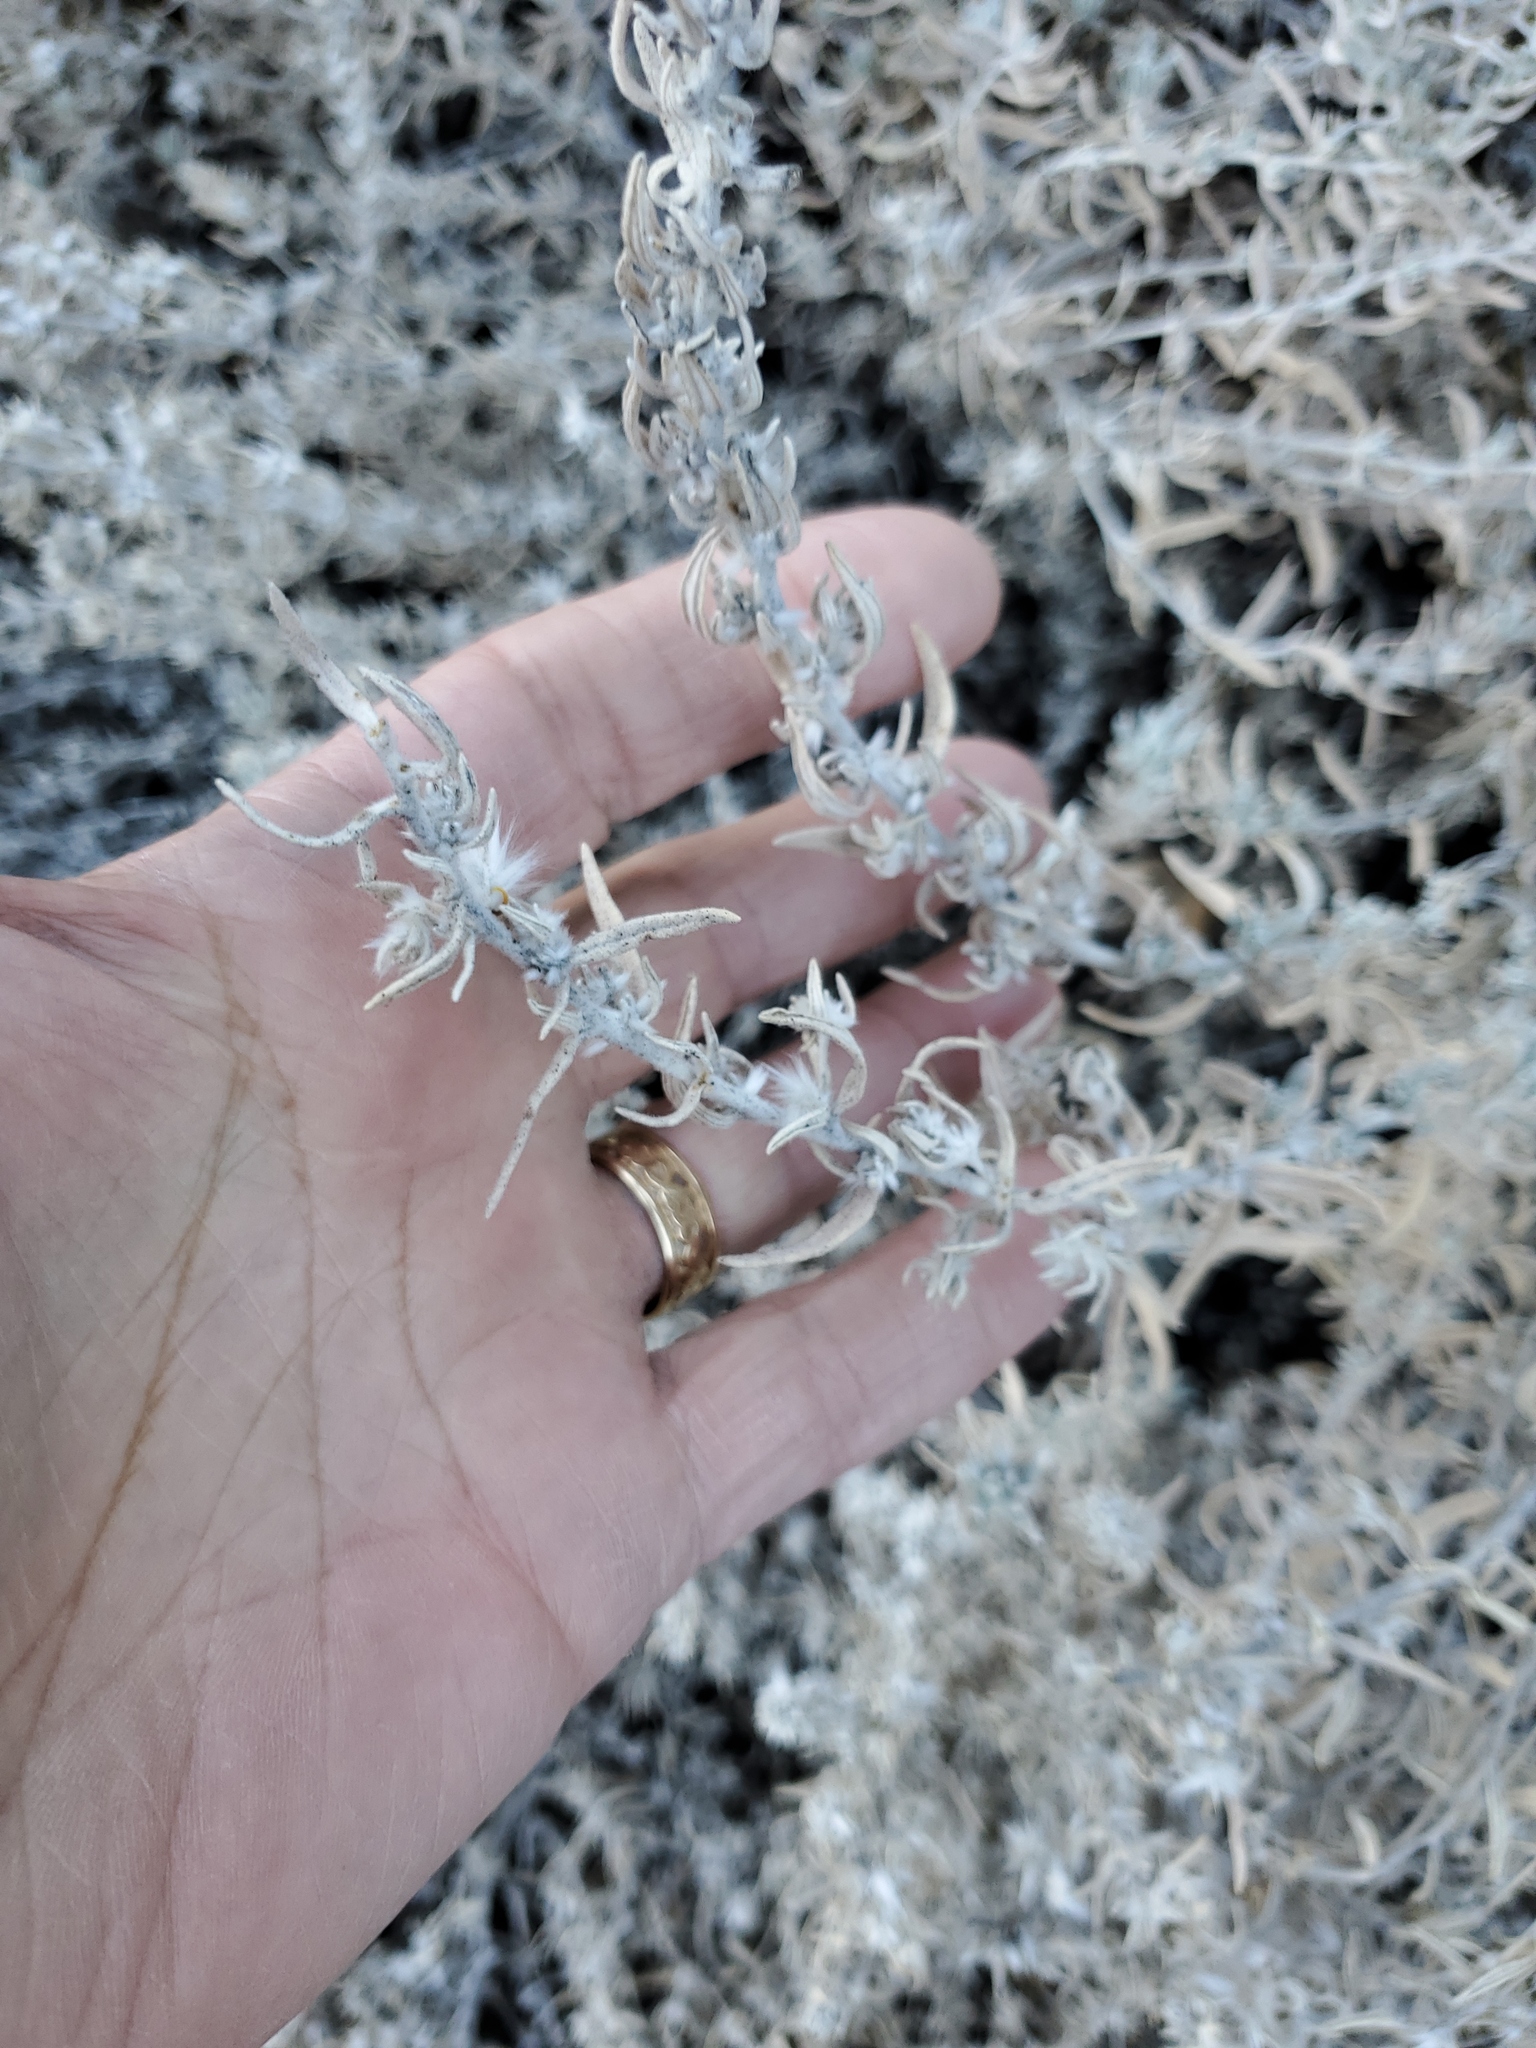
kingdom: Plantae
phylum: Tracheophyta
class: Magnoliopsida
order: Caryophyllales
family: Amaranthaceae
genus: Krascheninnikovia
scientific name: Krascheninnikovia lanata
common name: Winterfat
